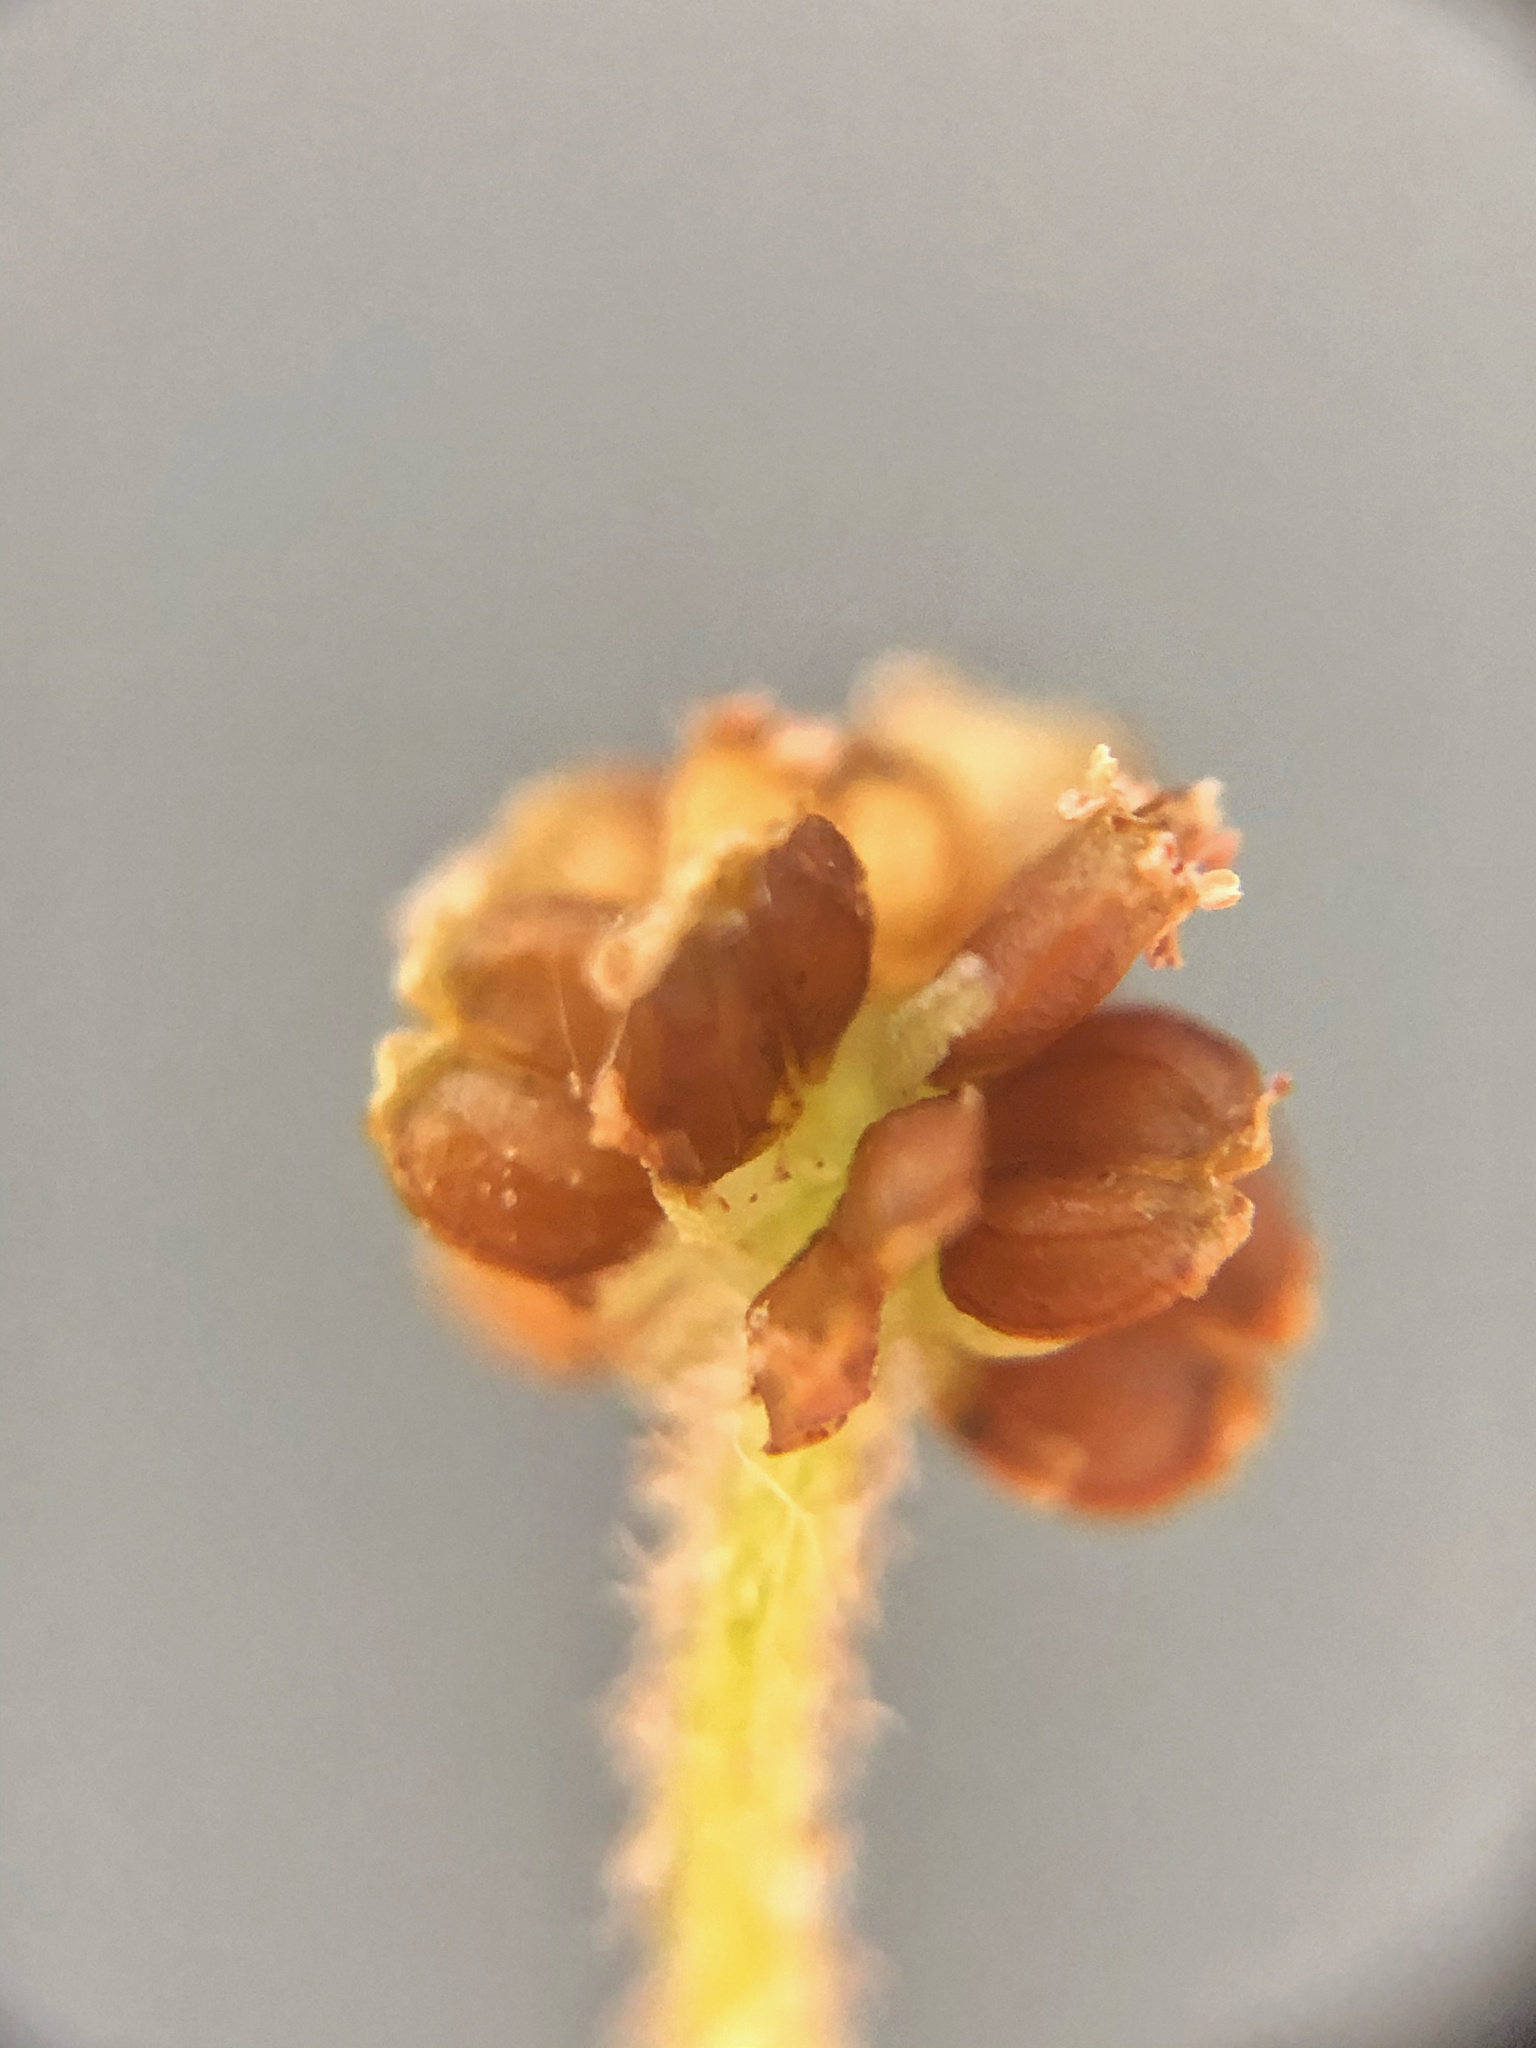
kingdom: Plantae
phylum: Tracheophyta
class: Magnoliopsida
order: Apiales
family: Araliaceae
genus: Hydrocotyle
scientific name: Hydrocotyle moschata
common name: Hairy pennywort
